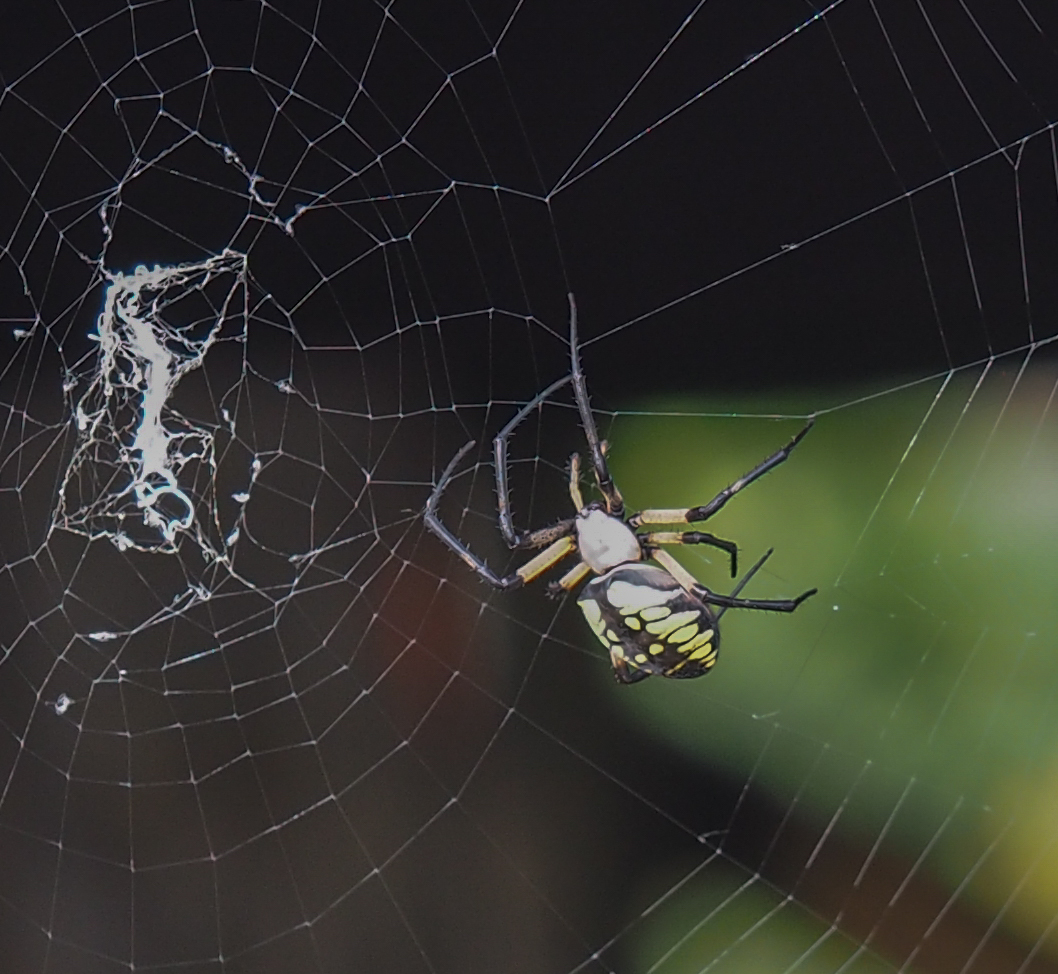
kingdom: Animalia
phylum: Arthropoda
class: Arachnida
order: Araneae
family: Araneidae
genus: Argiope
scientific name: Argiope aurantia
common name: Orb weavers
